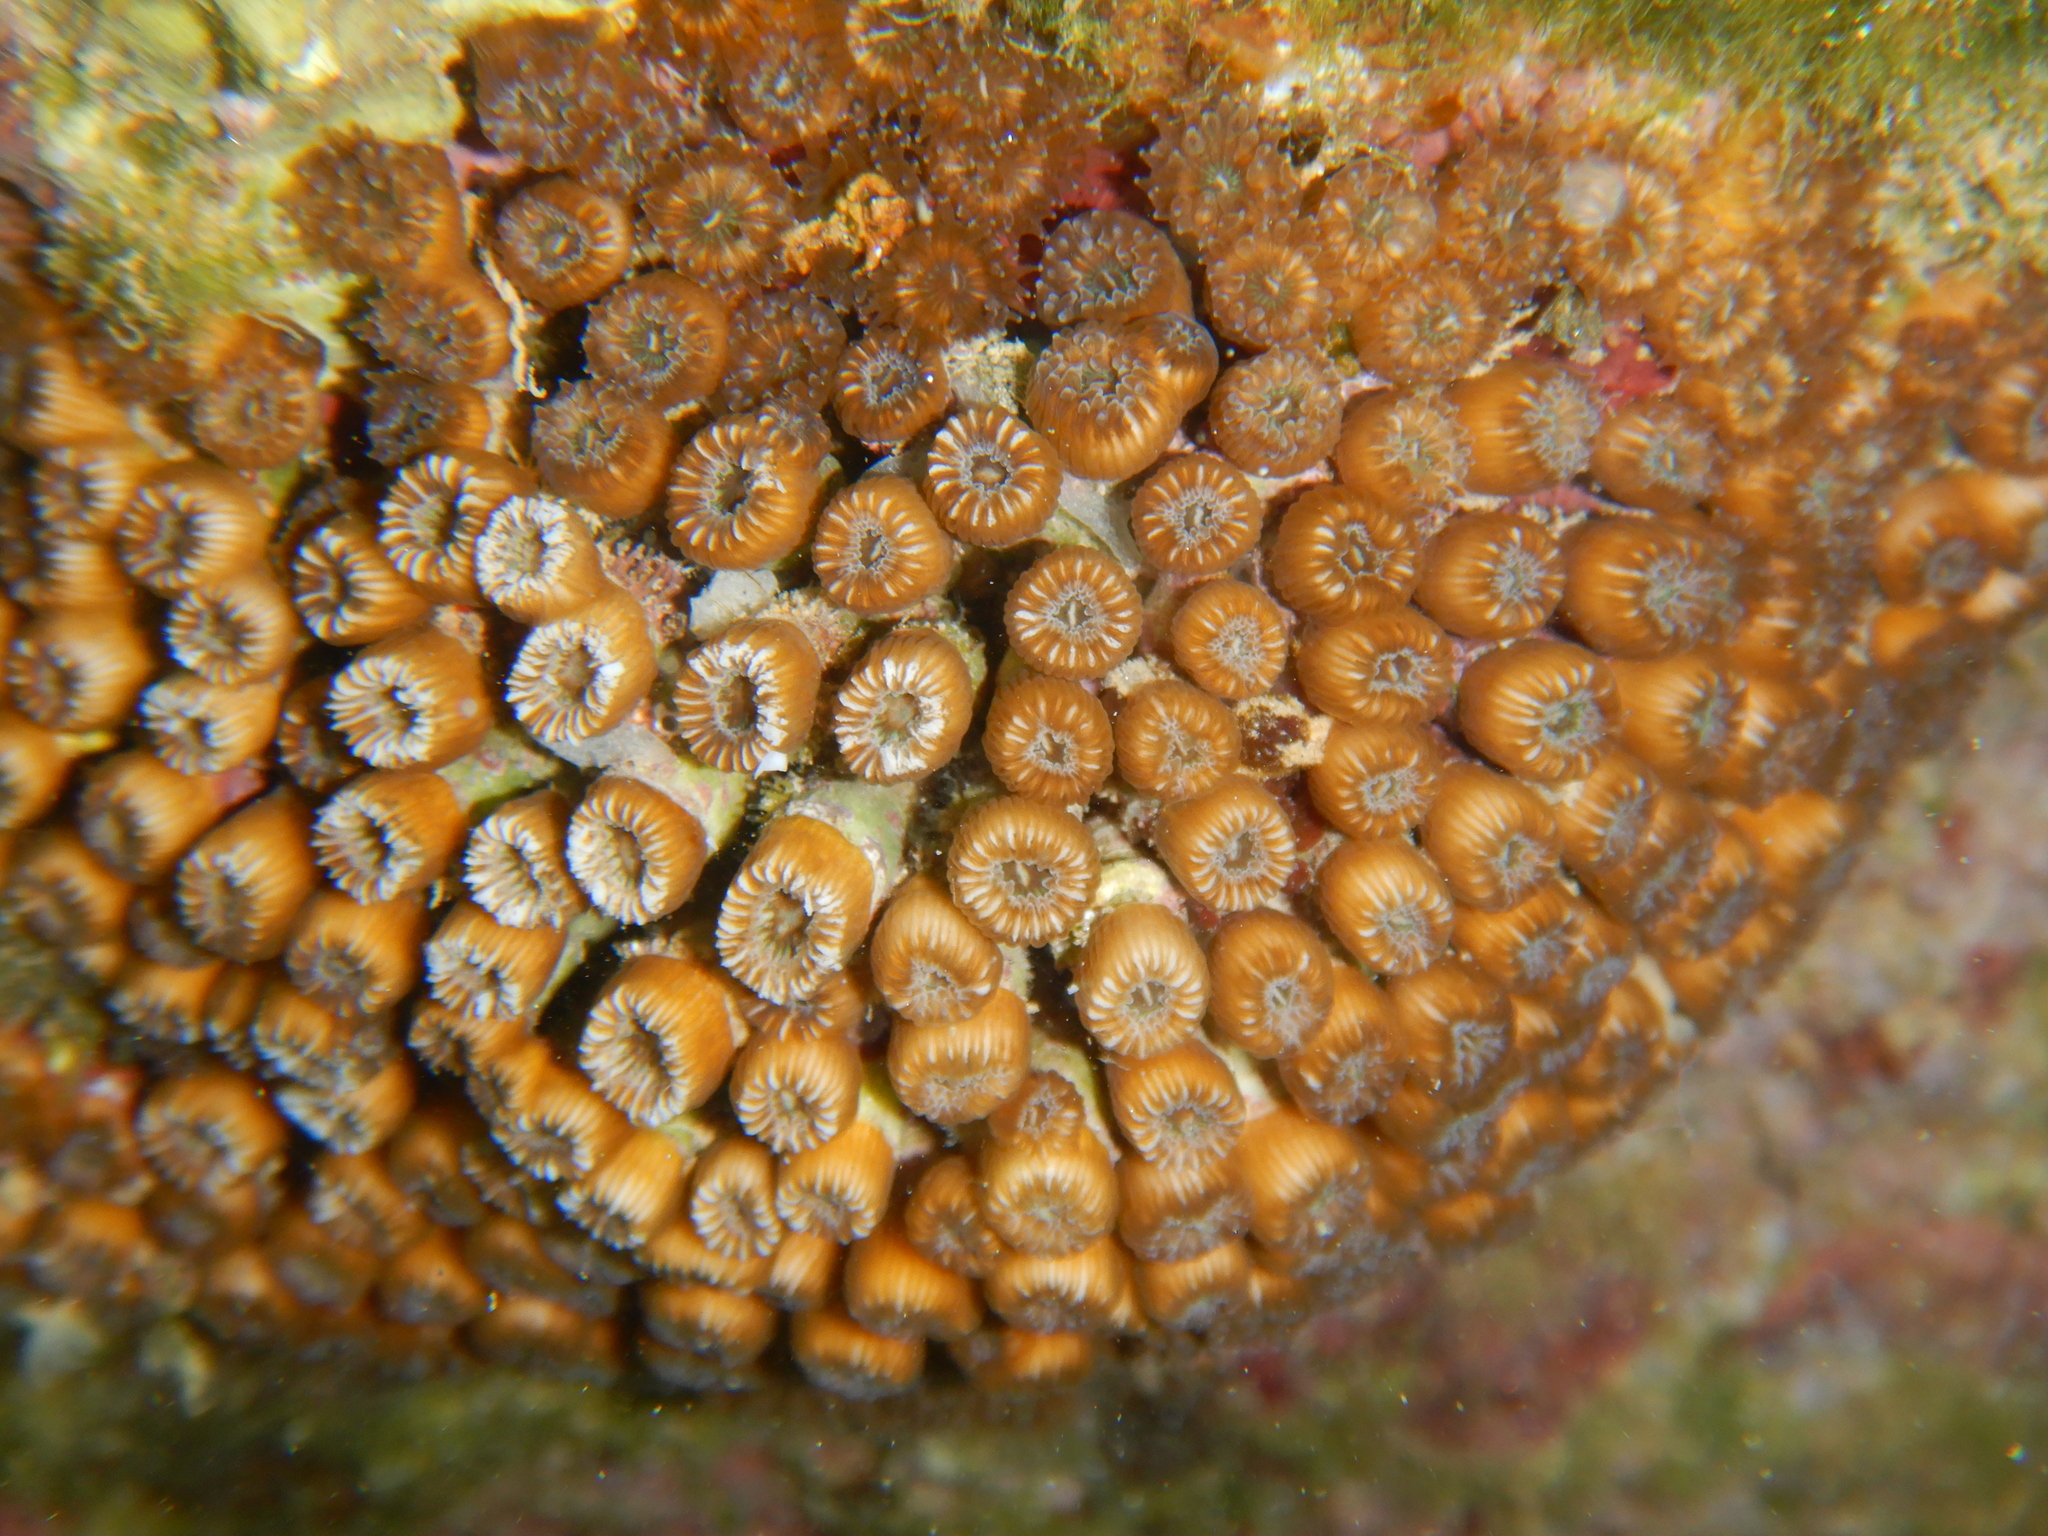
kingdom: Animalia
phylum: Cnidaria
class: Anthozoa
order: Scleractinia
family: Cladocoridae
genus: Cladocora
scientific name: Cladocora caespitosa
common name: Cladocora
